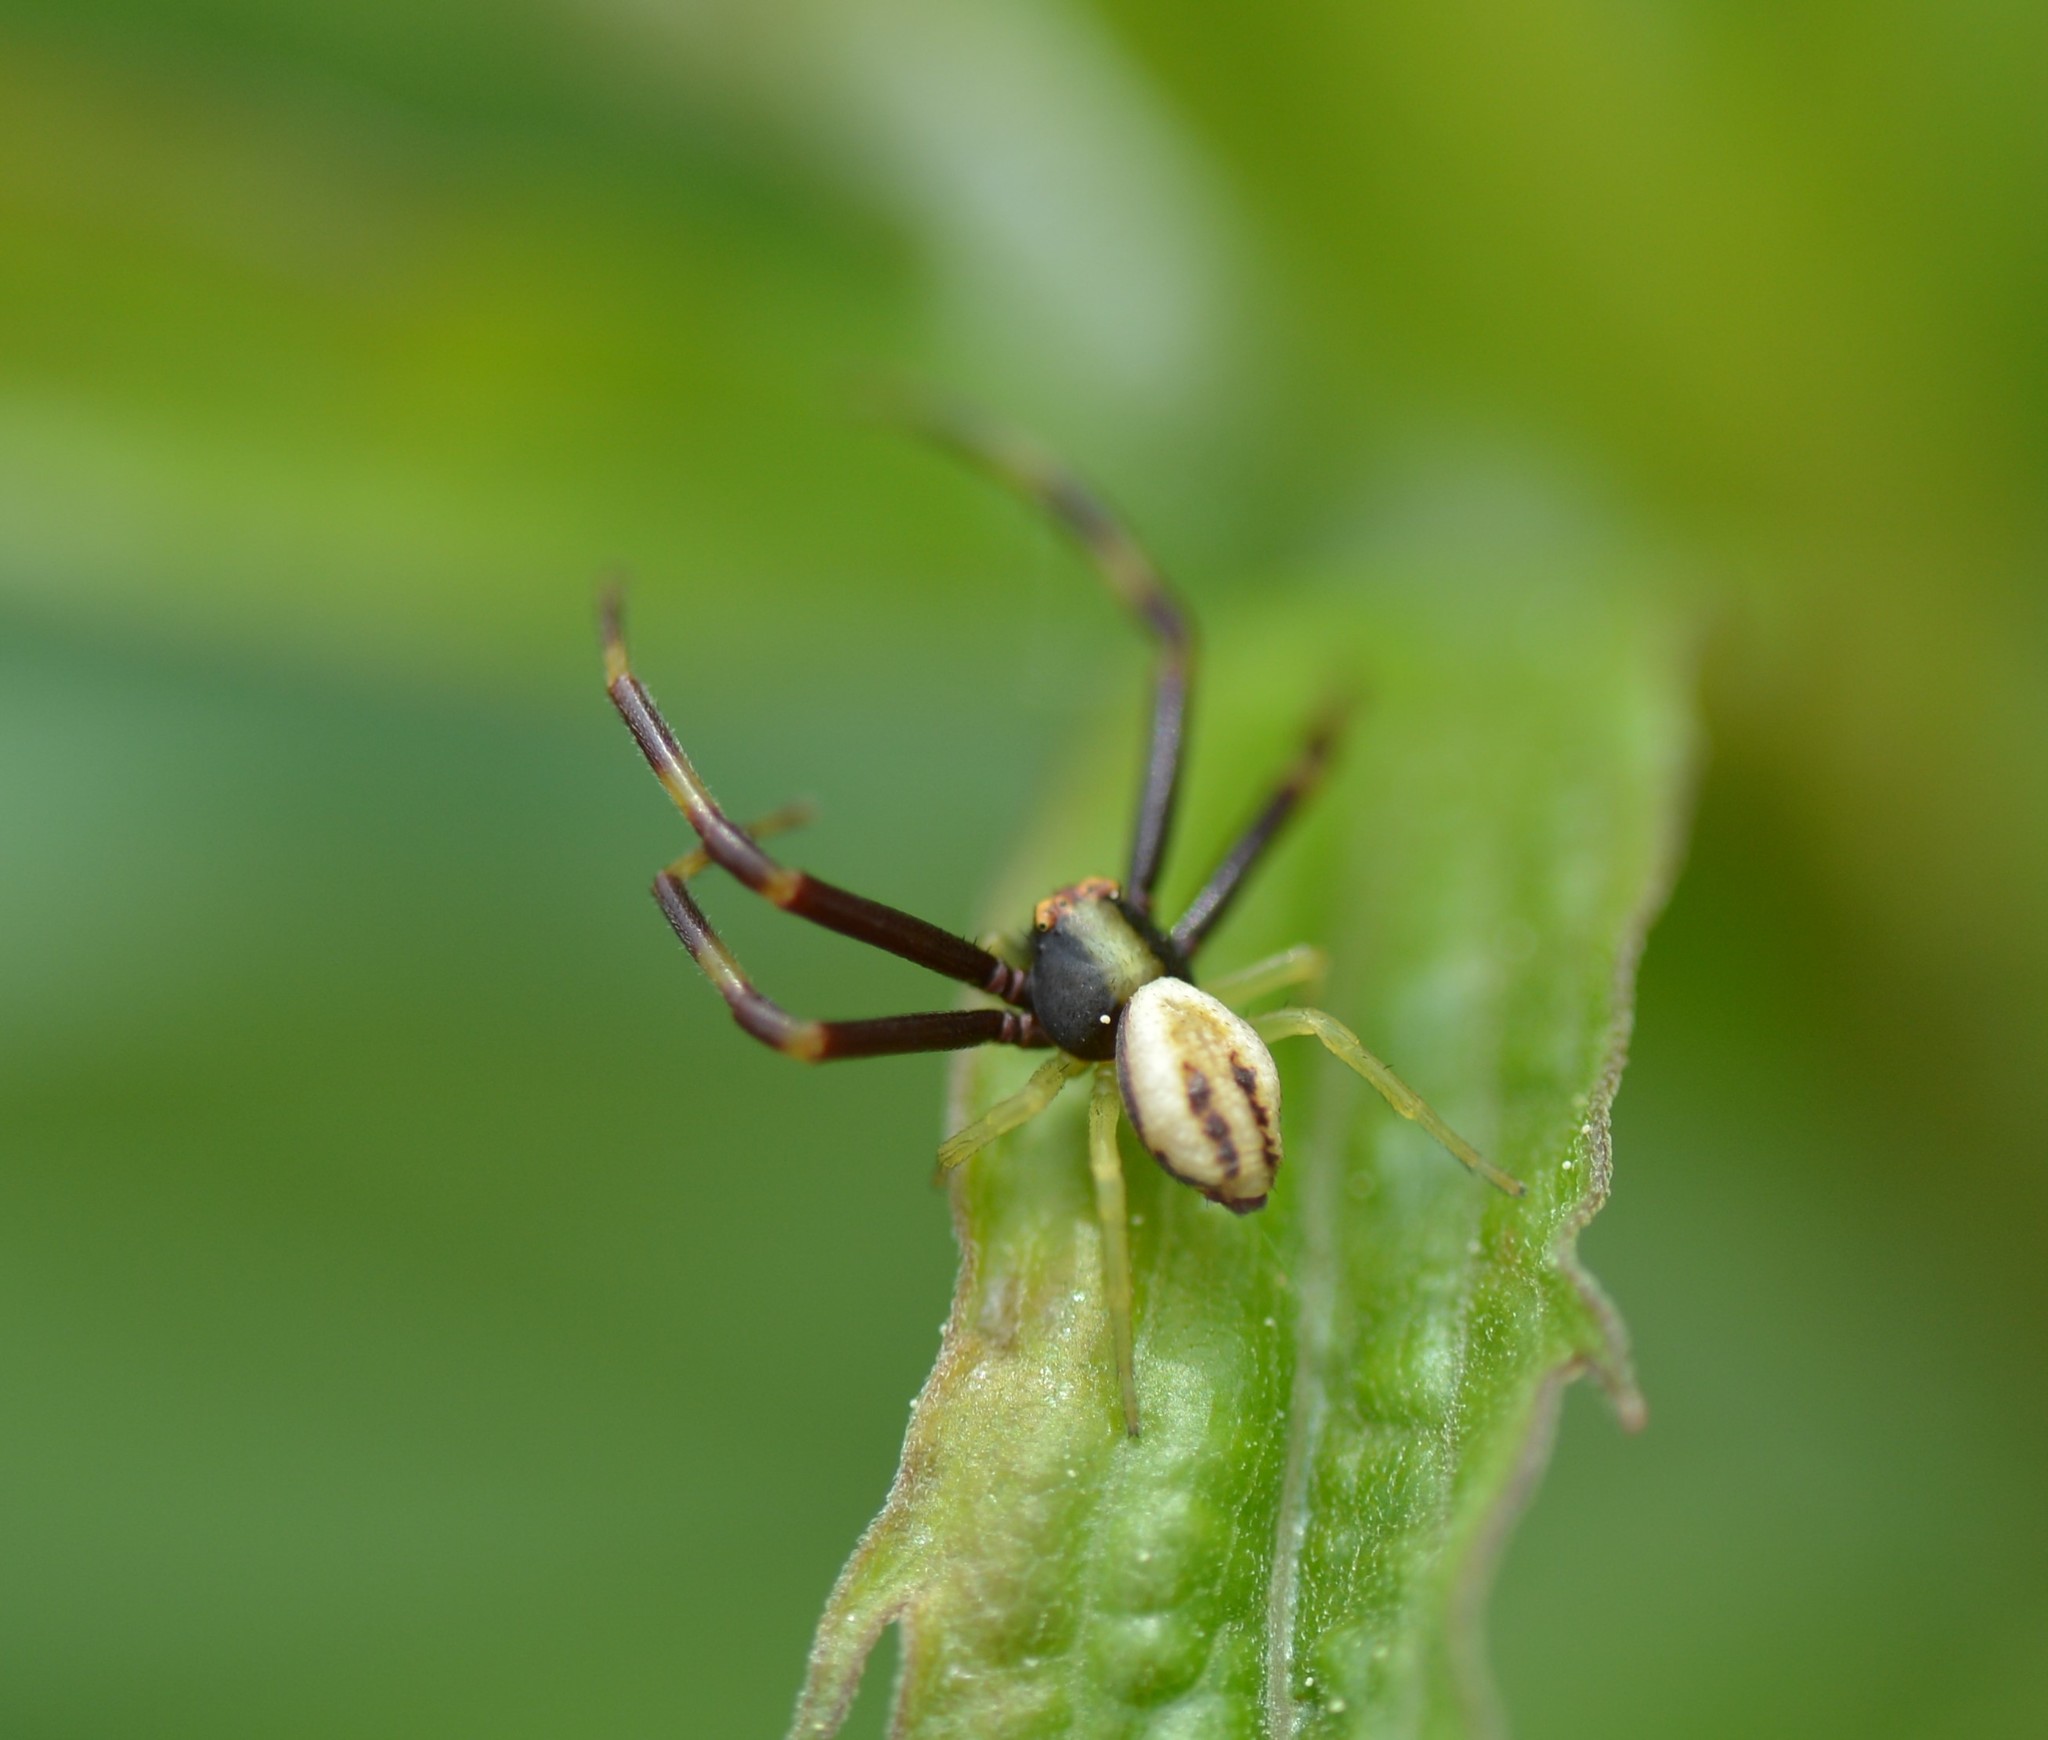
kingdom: Animalia
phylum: Arthropoda
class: Arachnida
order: Araneae
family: Thomisidae
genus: Misumena
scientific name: Misumena vatia
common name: Goldenrod crab spider
